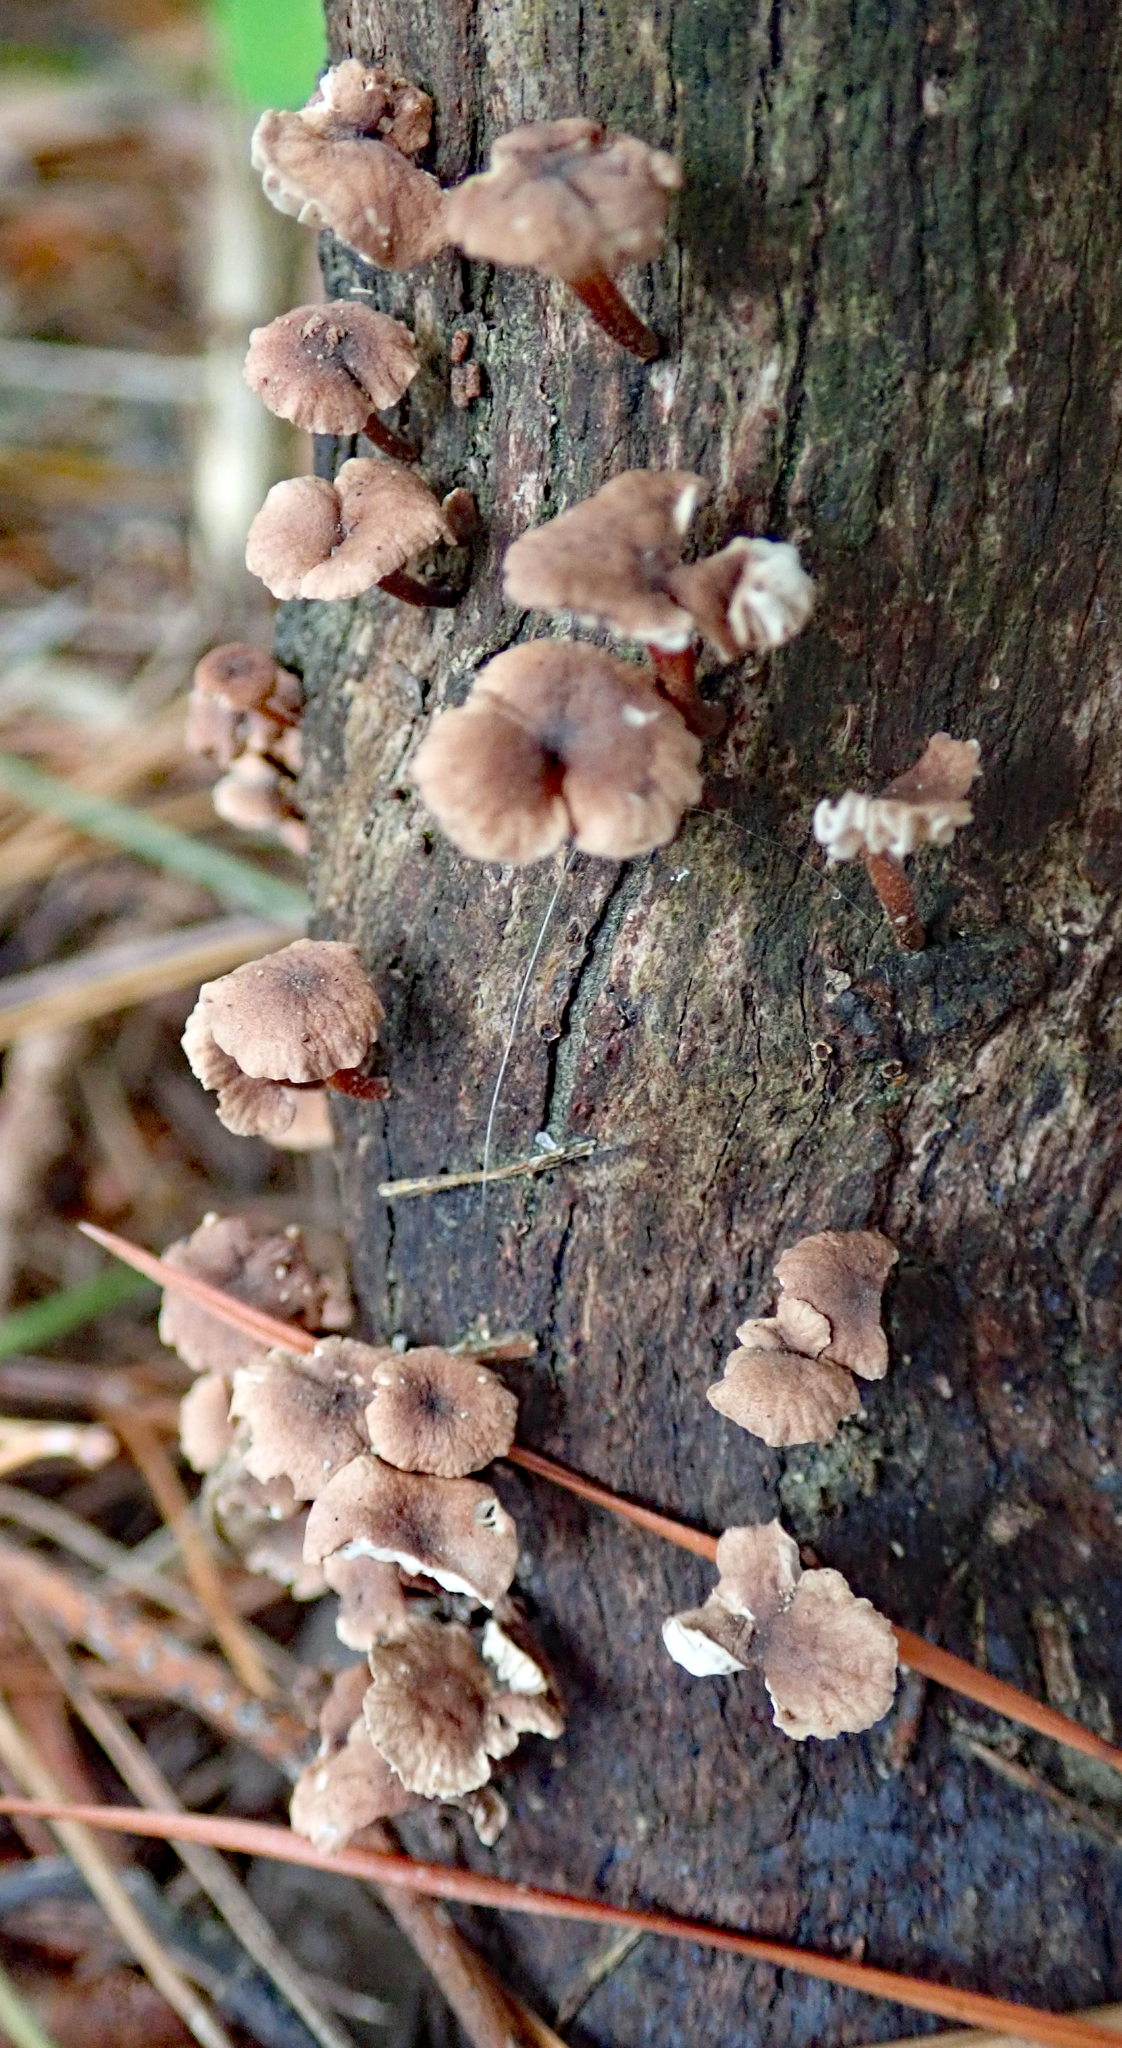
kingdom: Fungi
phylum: Basidiomycota
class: Agaricomycetes
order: Agaricales
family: Omphalotaceae
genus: Mycetinis
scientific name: Mycetinis curraniae
